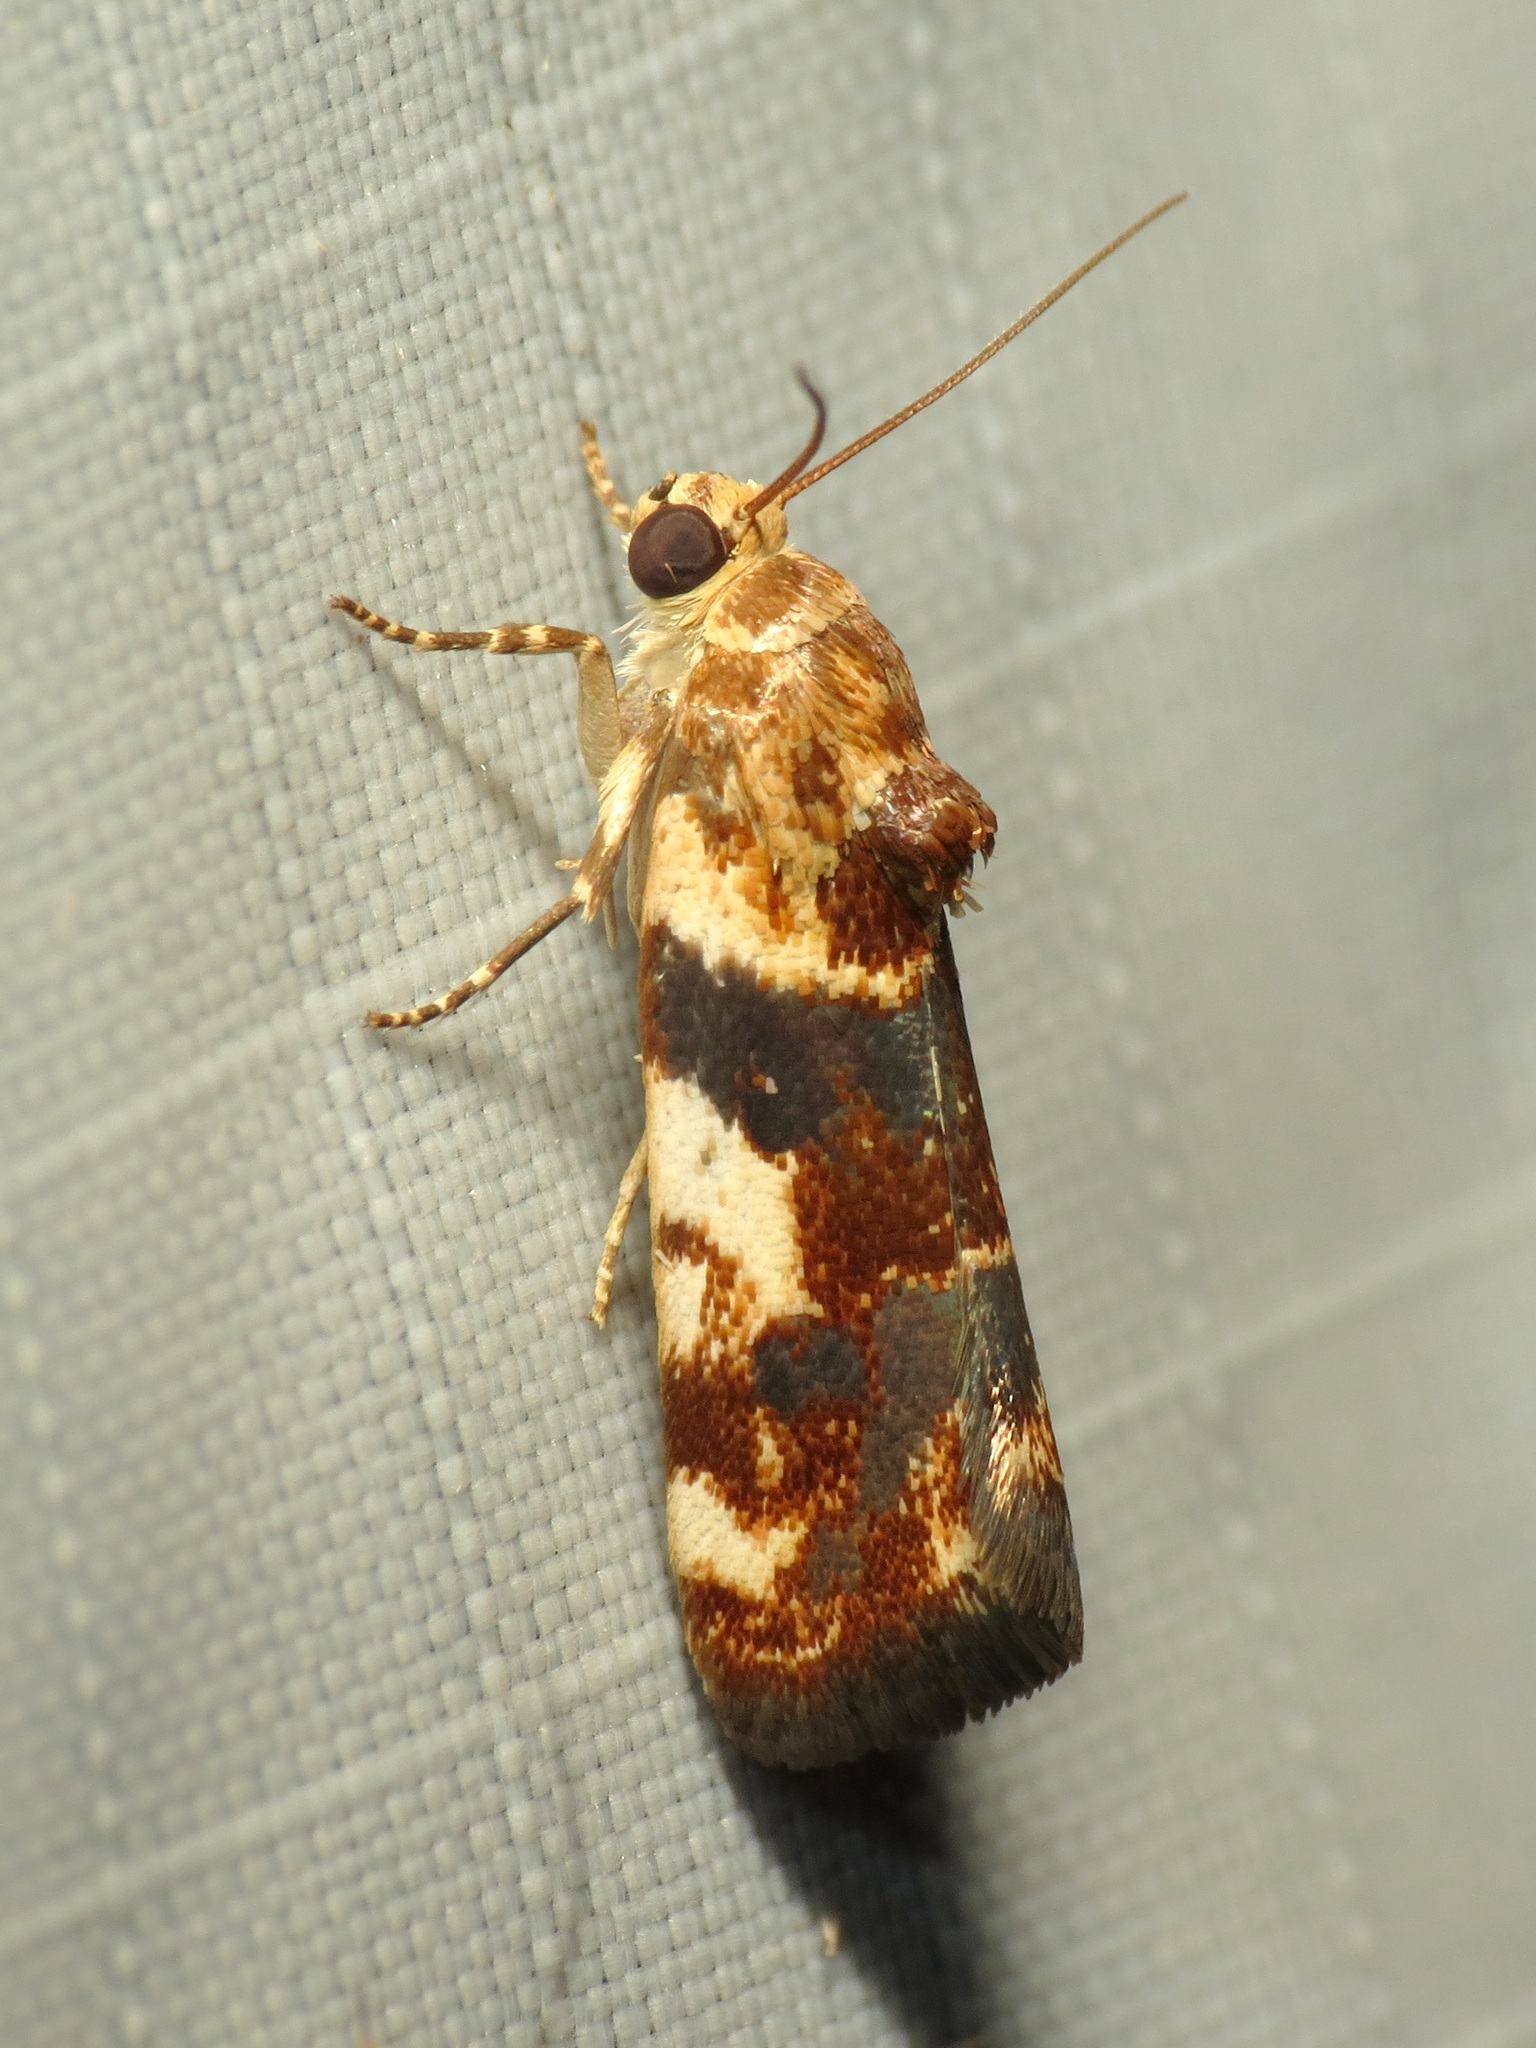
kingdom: Animalia
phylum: Arthropoda
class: Insecta
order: Lepidoptera
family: Noctuidae
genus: Acontia
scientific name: Acontia obatra
